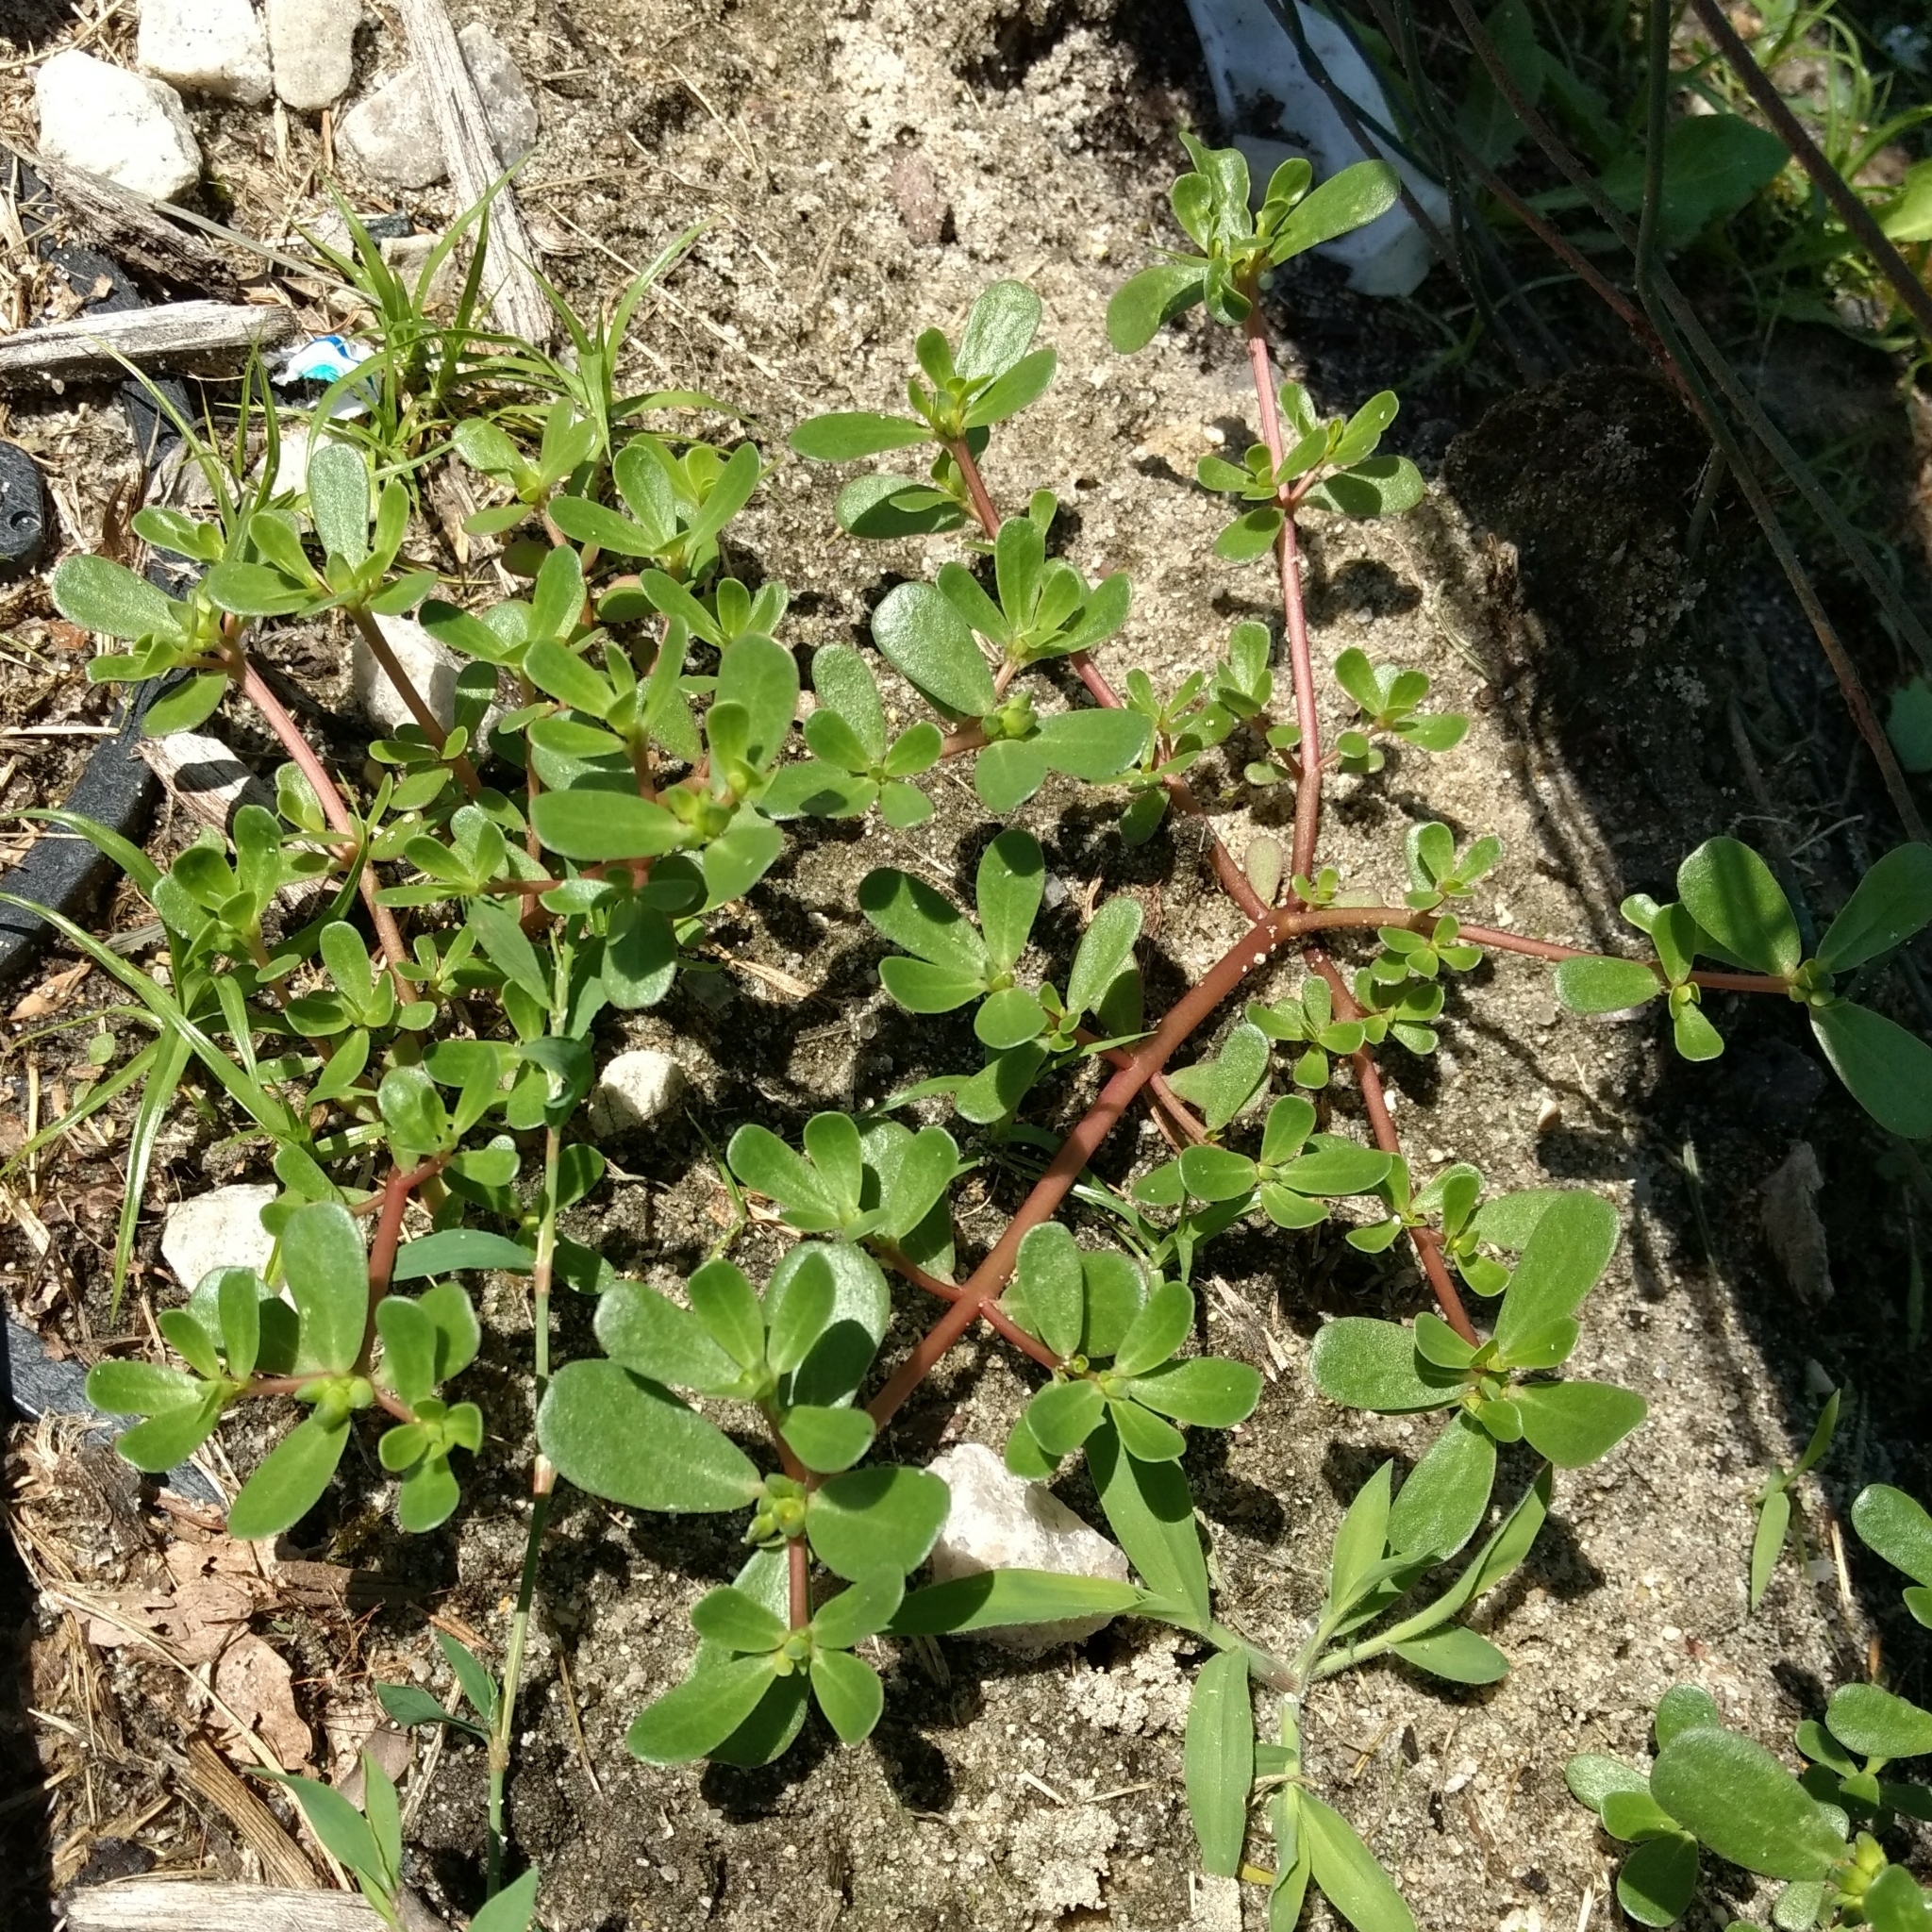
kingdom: Plantae
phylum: Tracheophyta
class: Magnoliopsida
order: Caryophyllales
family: Portulacaceae
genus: Portulaca
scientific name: Portulaca oleracea
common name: Common purslane
